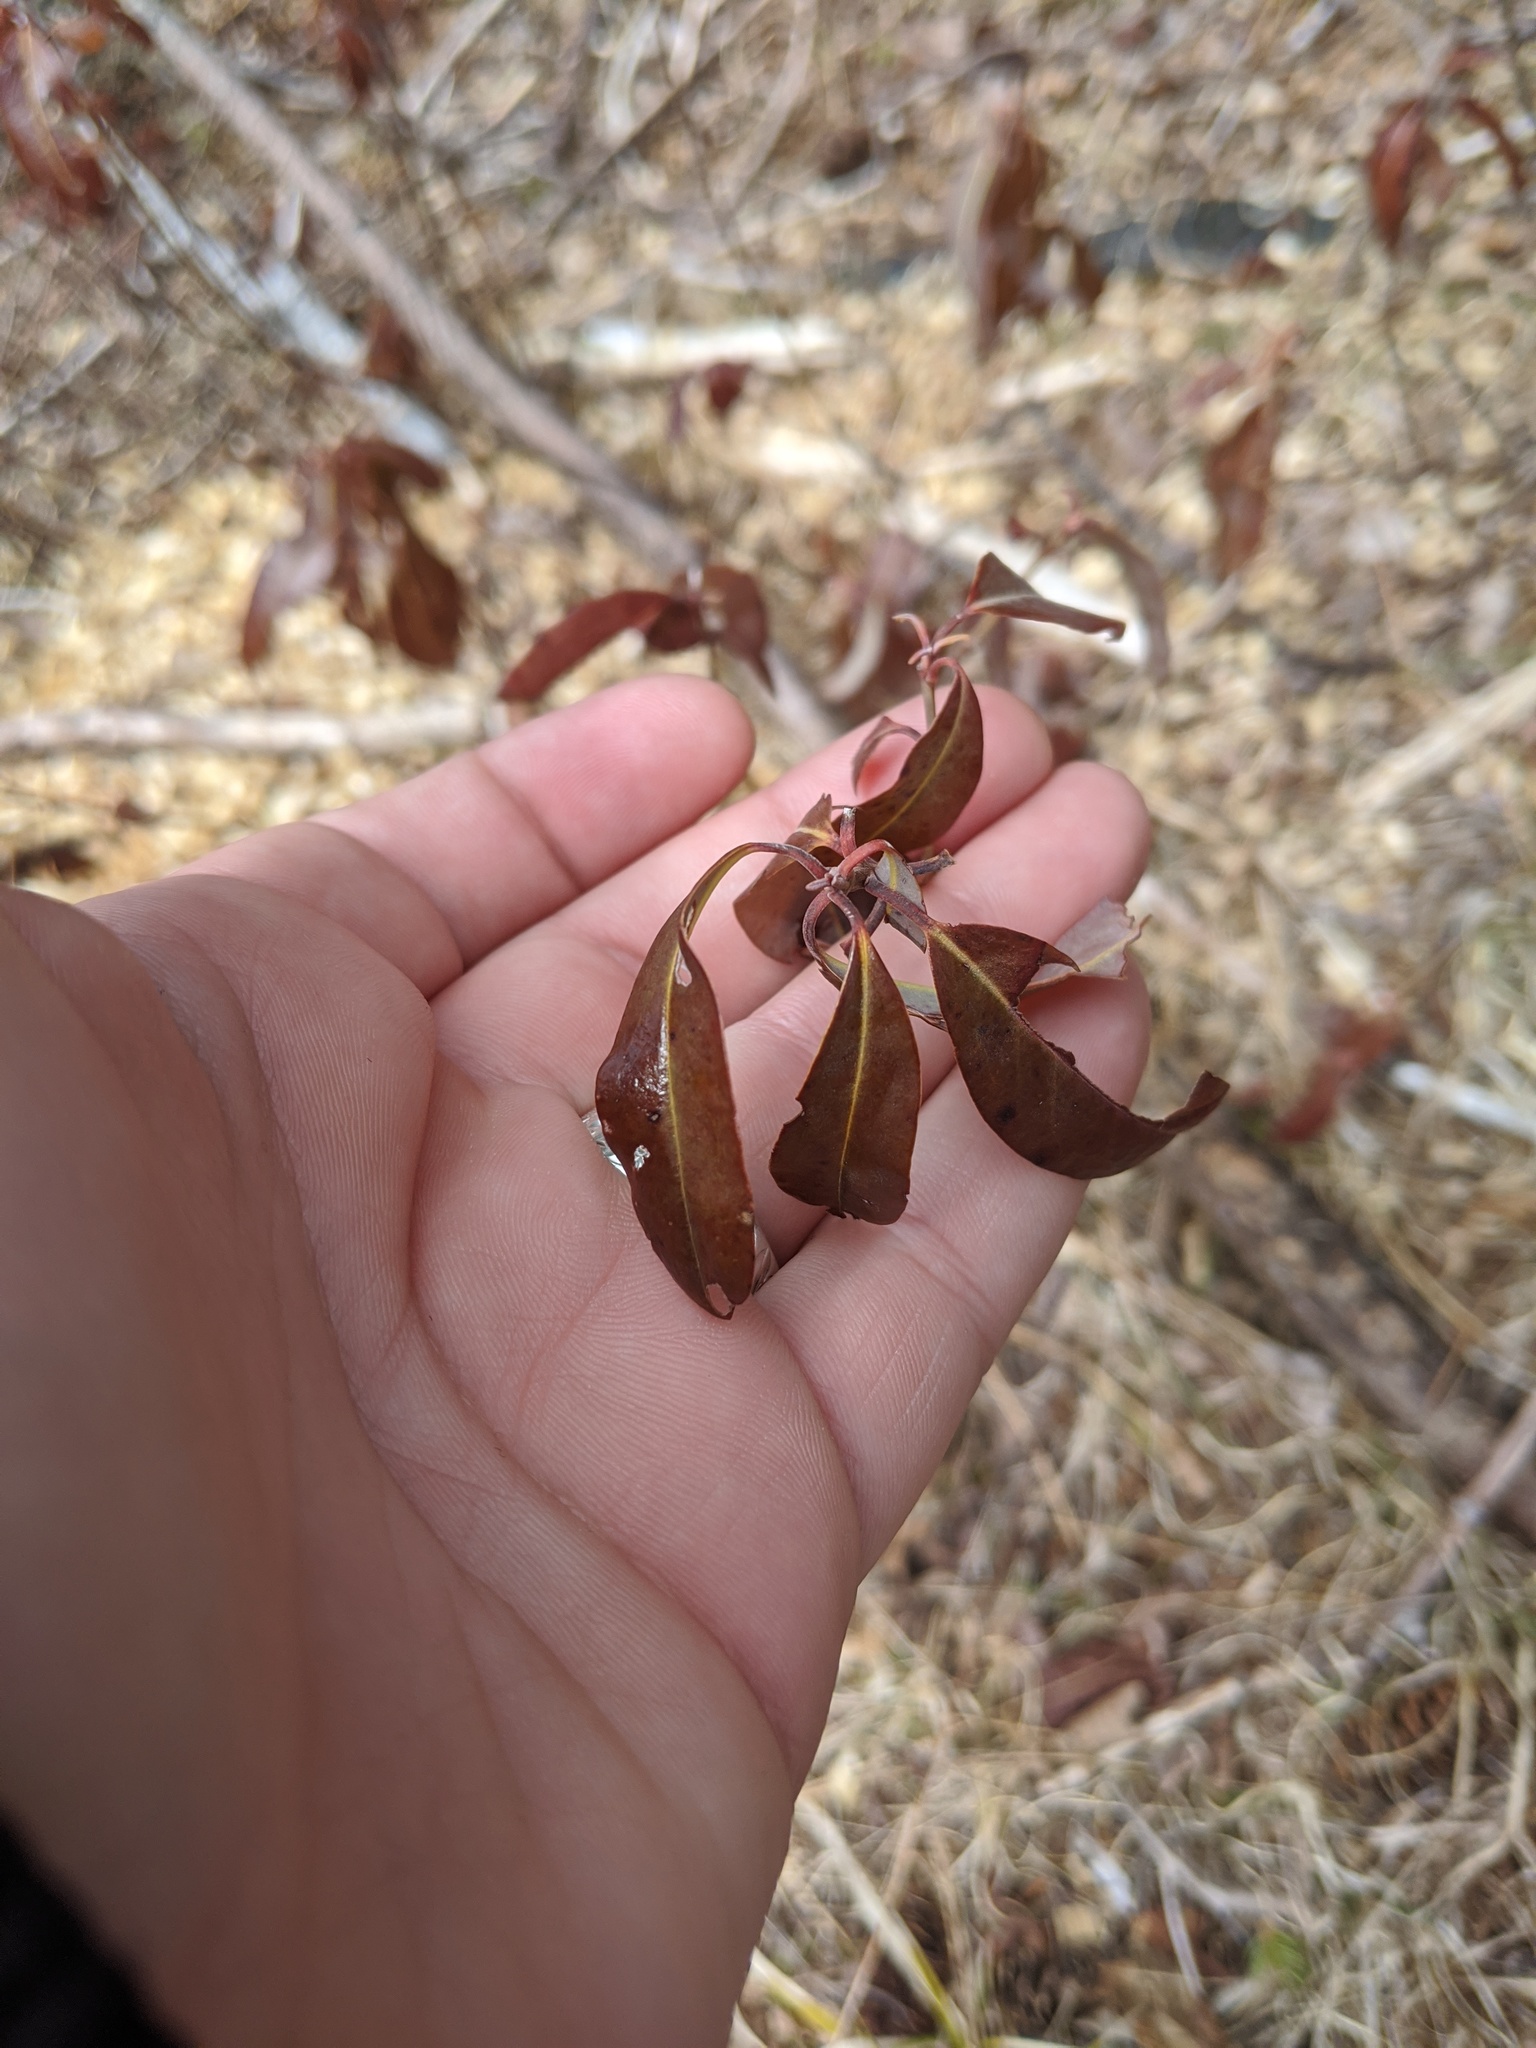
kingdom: Plantae
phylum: Tracheophyta
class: Magnoliopsida
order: Ericales
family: Ericaceae
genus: Kalmia
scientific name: Kalmia angustifolia
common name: Sheep-laurel
